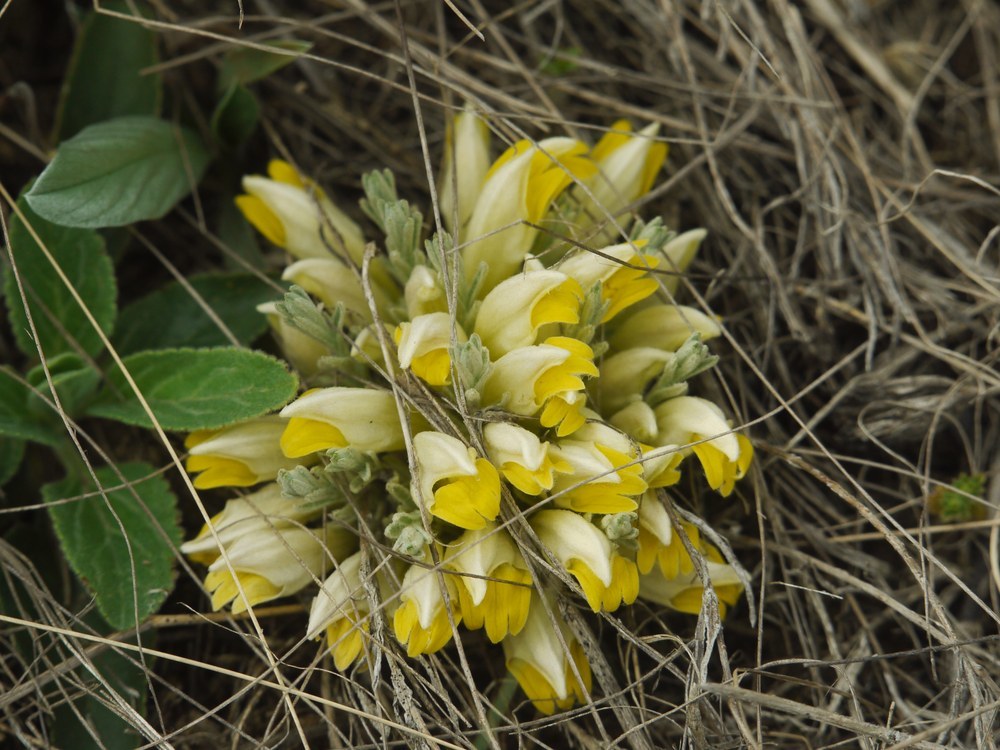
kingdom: Plantae
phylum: Tracheophyta
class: Magnoliopsida
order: Lamiales
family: Orobanchaceae
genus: Cymbaria
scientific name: Cymbaria borysthenica
